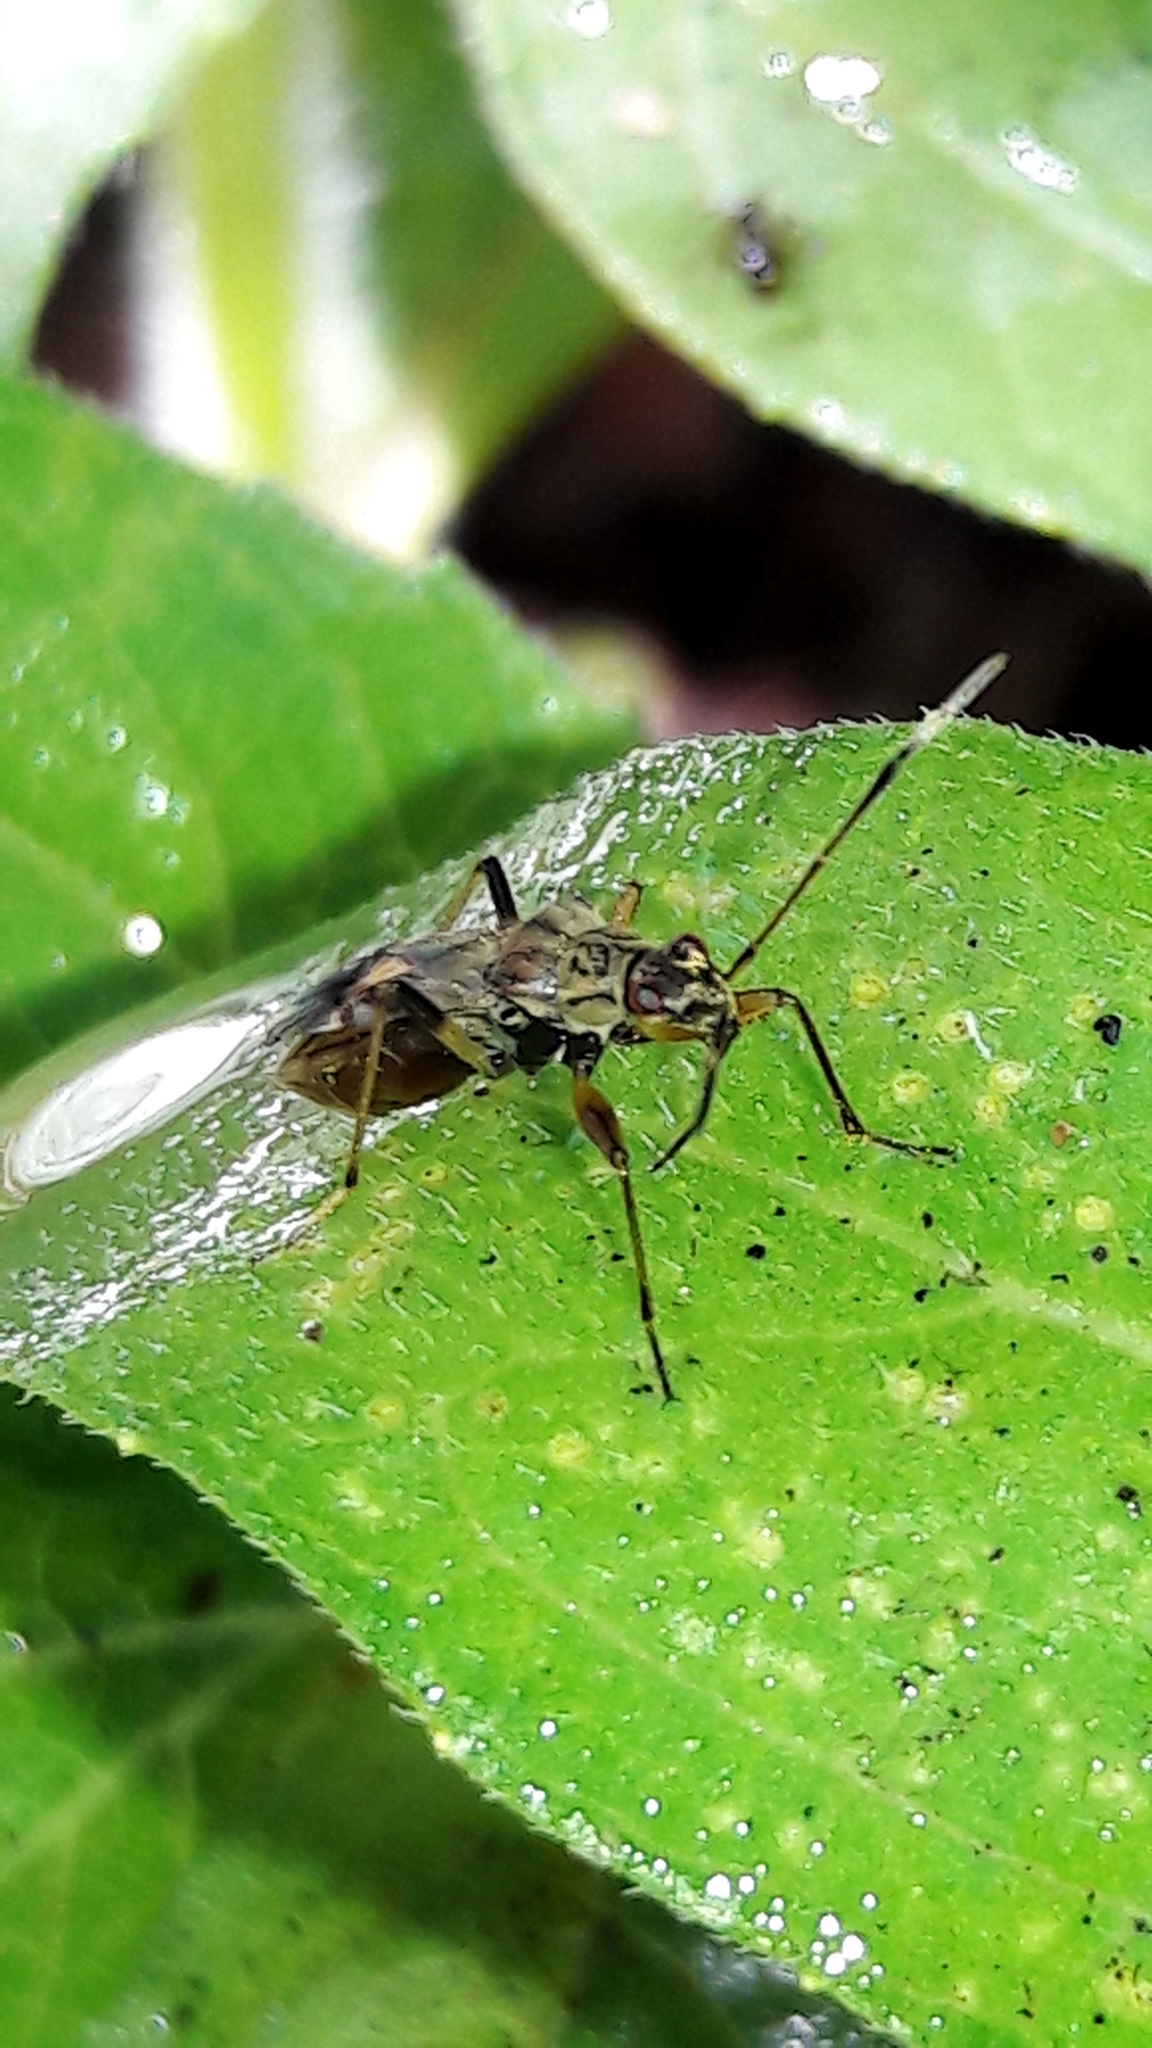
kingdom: Animalia
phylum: Arthropoda
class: Insecta
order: Hemiptera
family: Rhyparochromidae
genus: Neopamera
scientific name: Neopamera costalis
